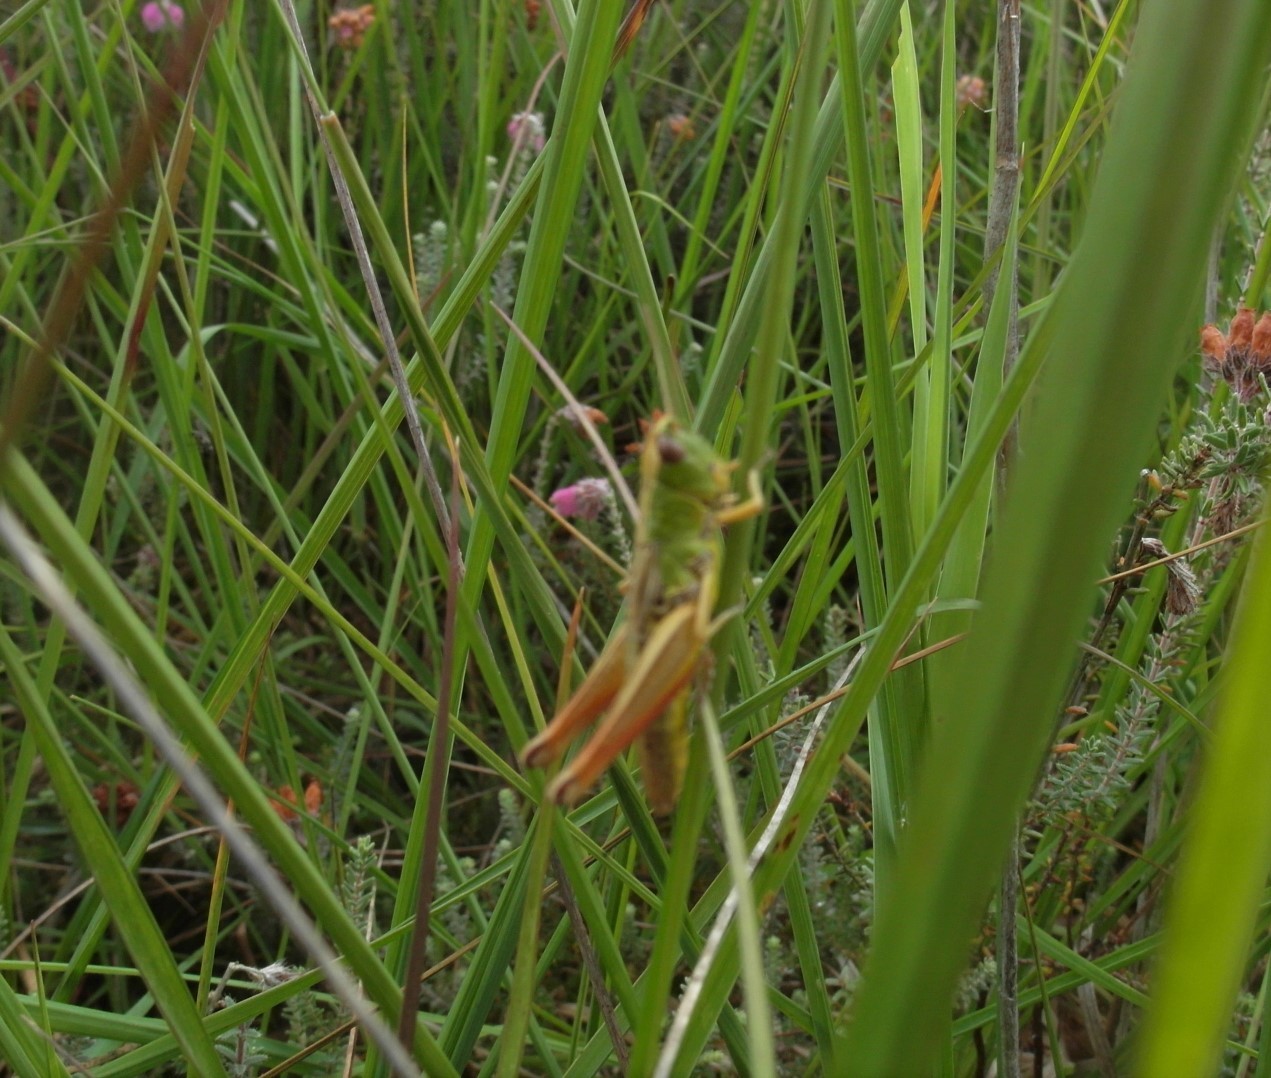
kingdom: Animalia
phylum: Arthropoda
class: Insecta
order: Orthoptera
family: Acrididae
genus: Pseudochorthippus
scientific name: Pseudochorthippus parallelus
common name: Meadow grasshopper
